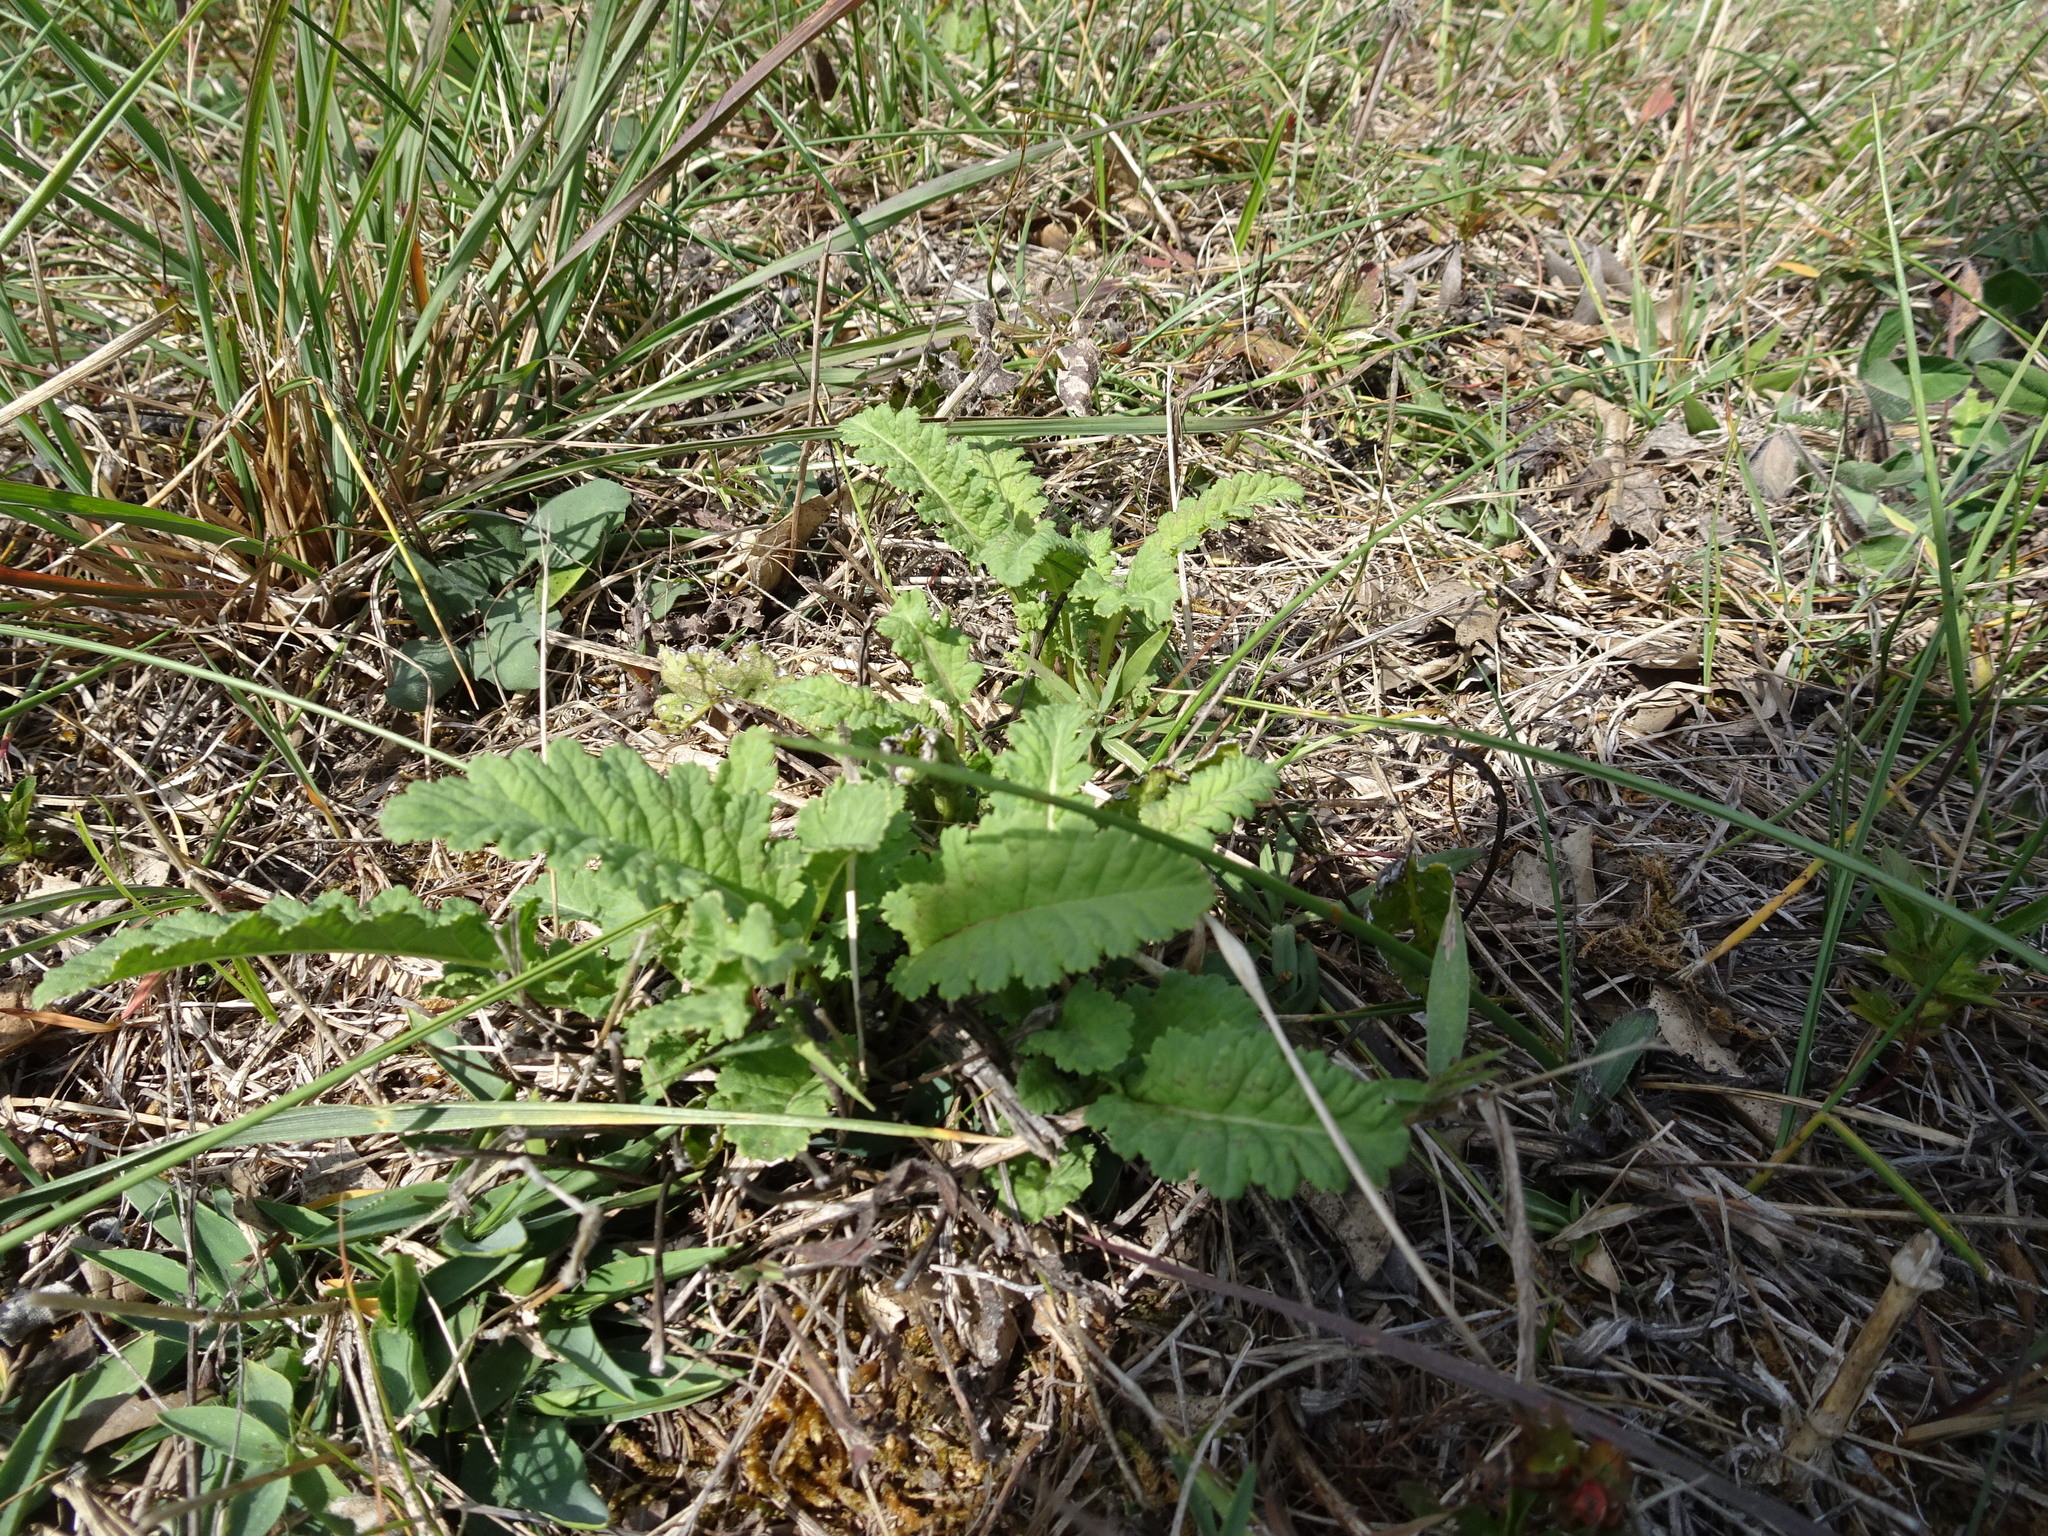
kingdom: Plantae
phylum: Tracheophyta
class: Magnoliopsida
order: Lamiales
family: Orobanchaceae
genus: Pedicularis
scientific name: Pedicularis canadensis
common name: Early lousewort
